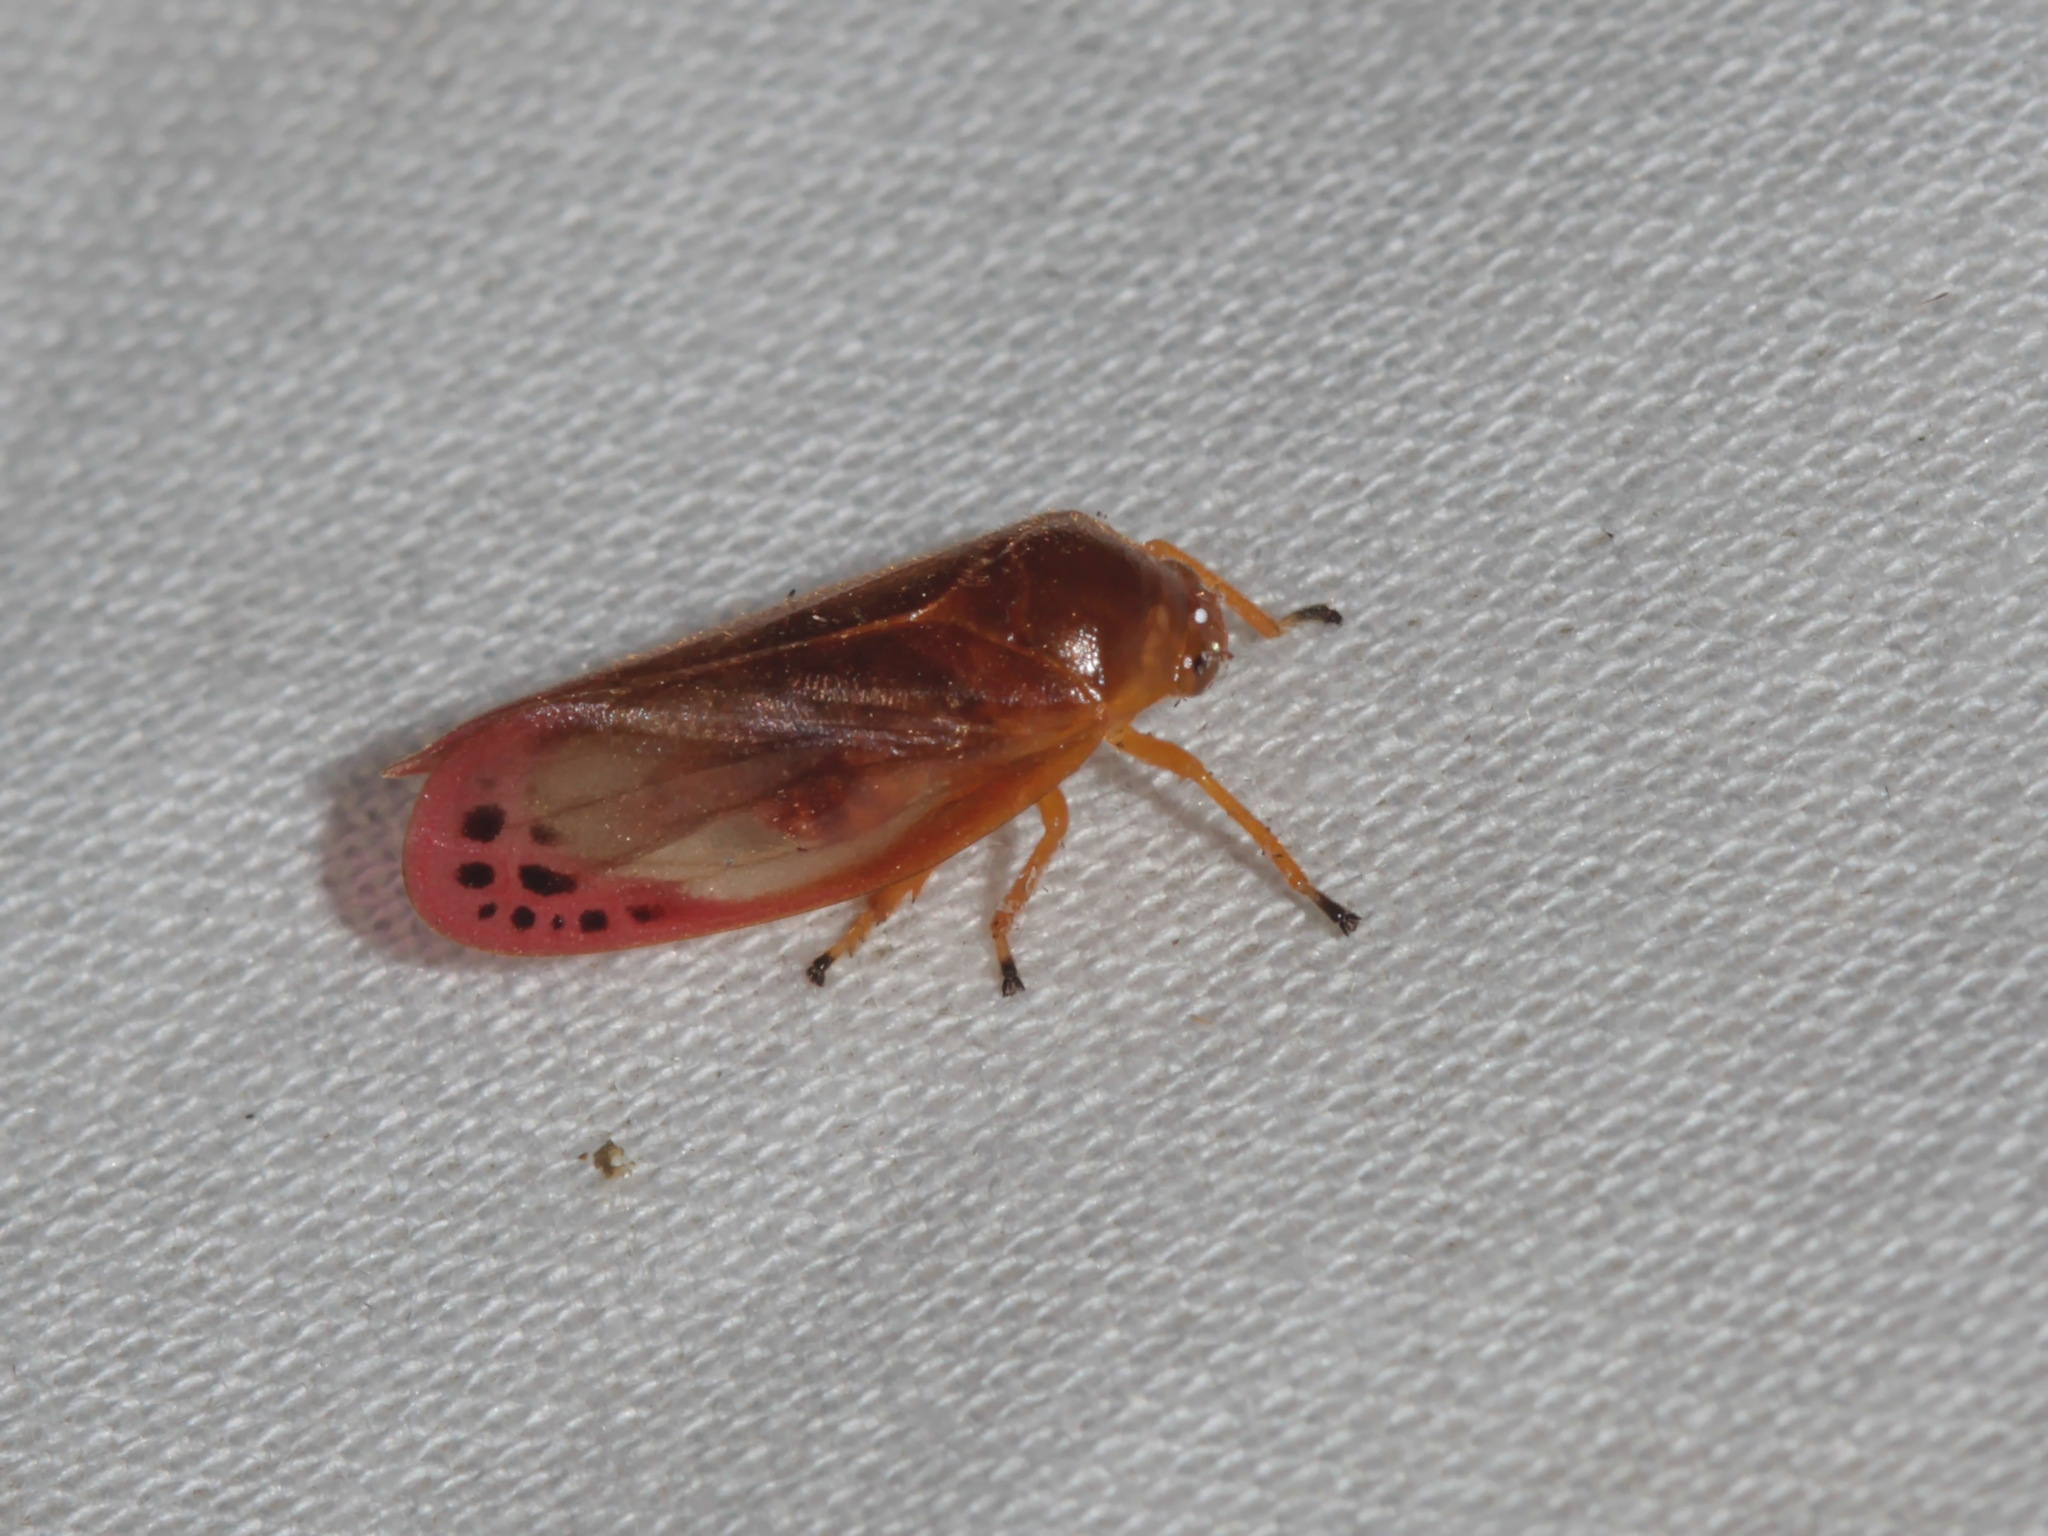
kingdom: Animalia
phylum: Arthropoda
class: Insecta
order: Hemiptera
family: Cercopidae
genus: Eoscarta
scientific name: Eoscarta liternoides
